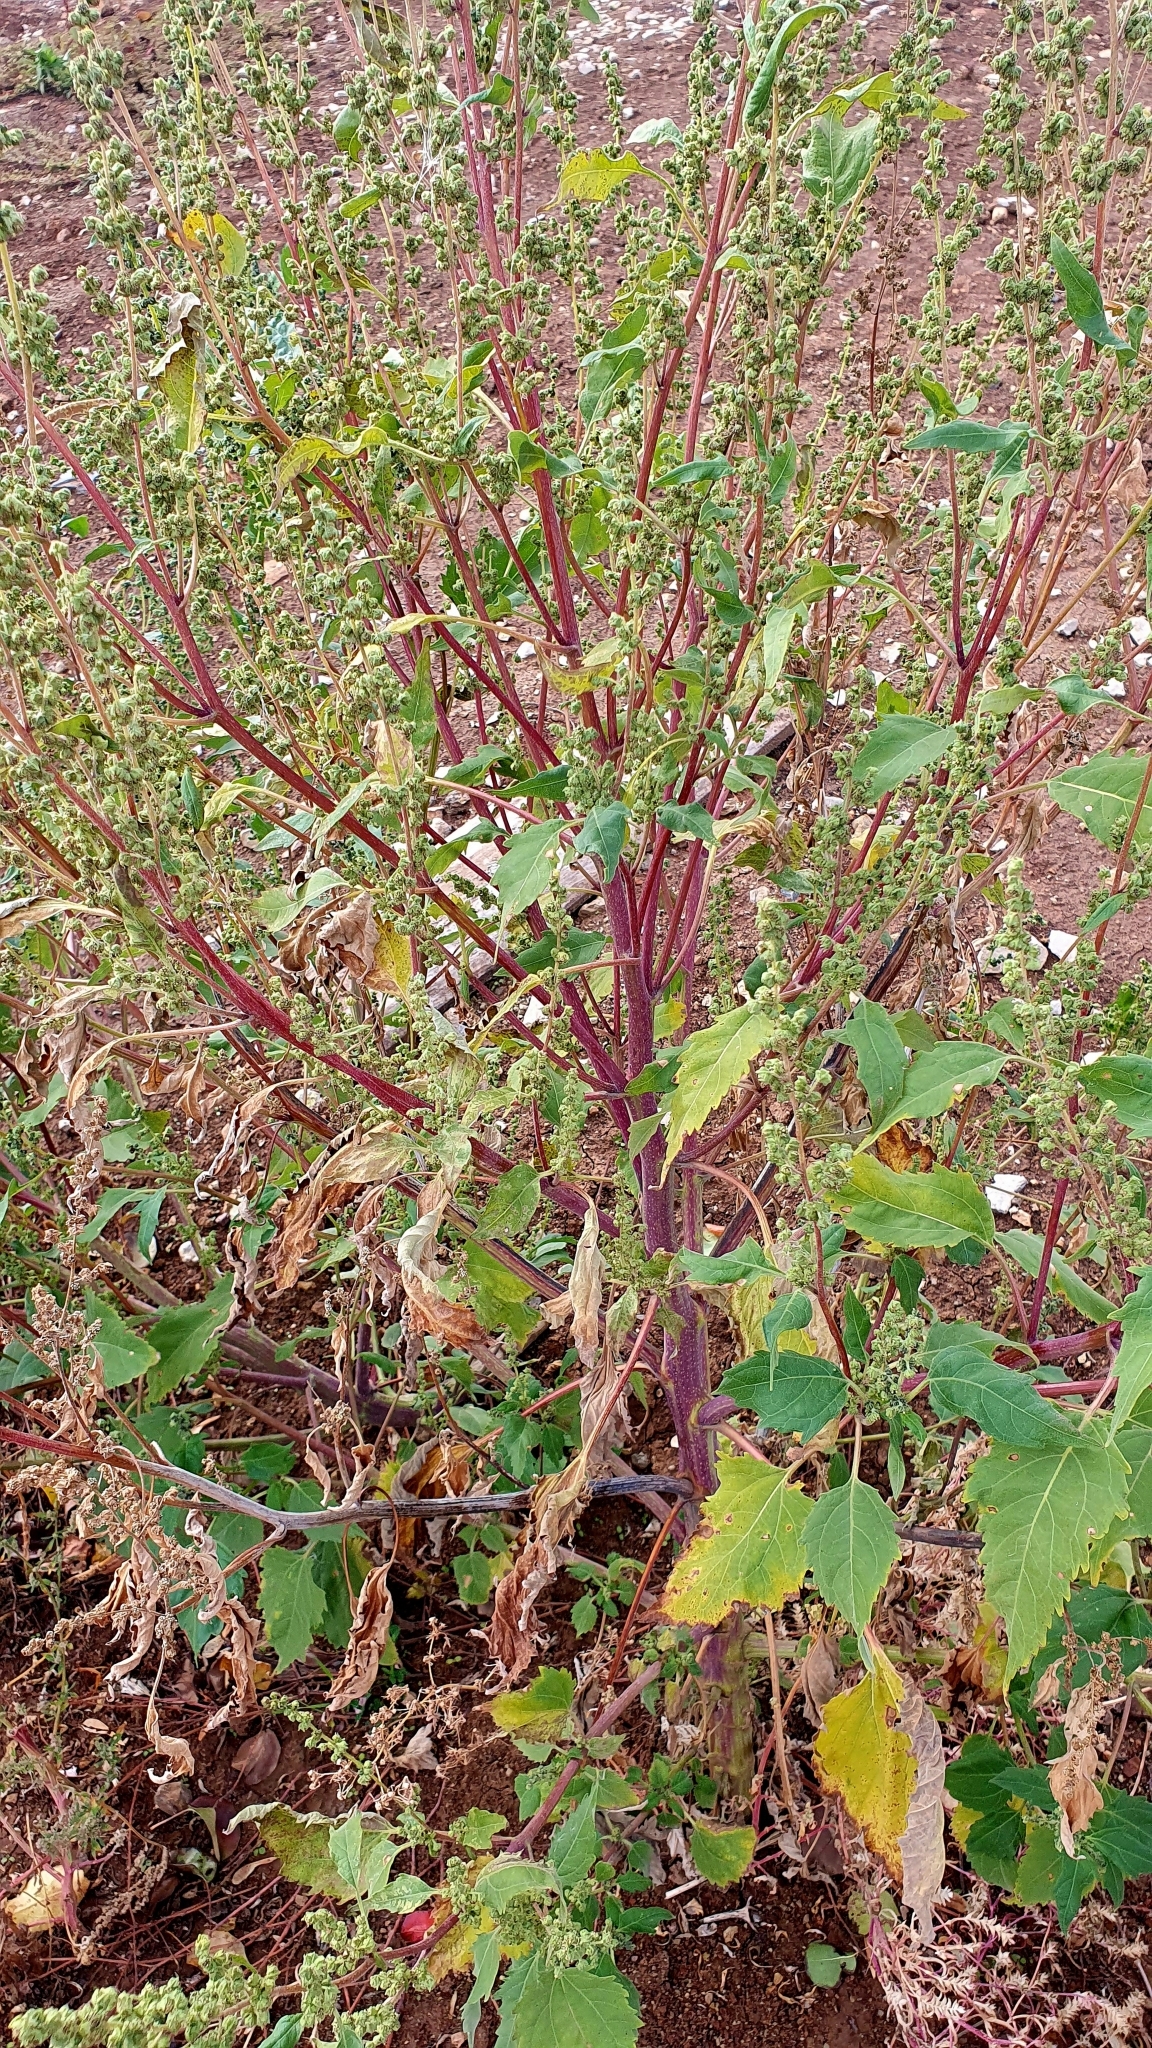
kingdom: Plantae
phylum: Tracheophyta
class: Magnoliopsida
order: Asterales
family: Asteraceae
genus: Cyclachaena
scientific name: Cyclachaena xanthiifolia
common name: Giant sumpweed
